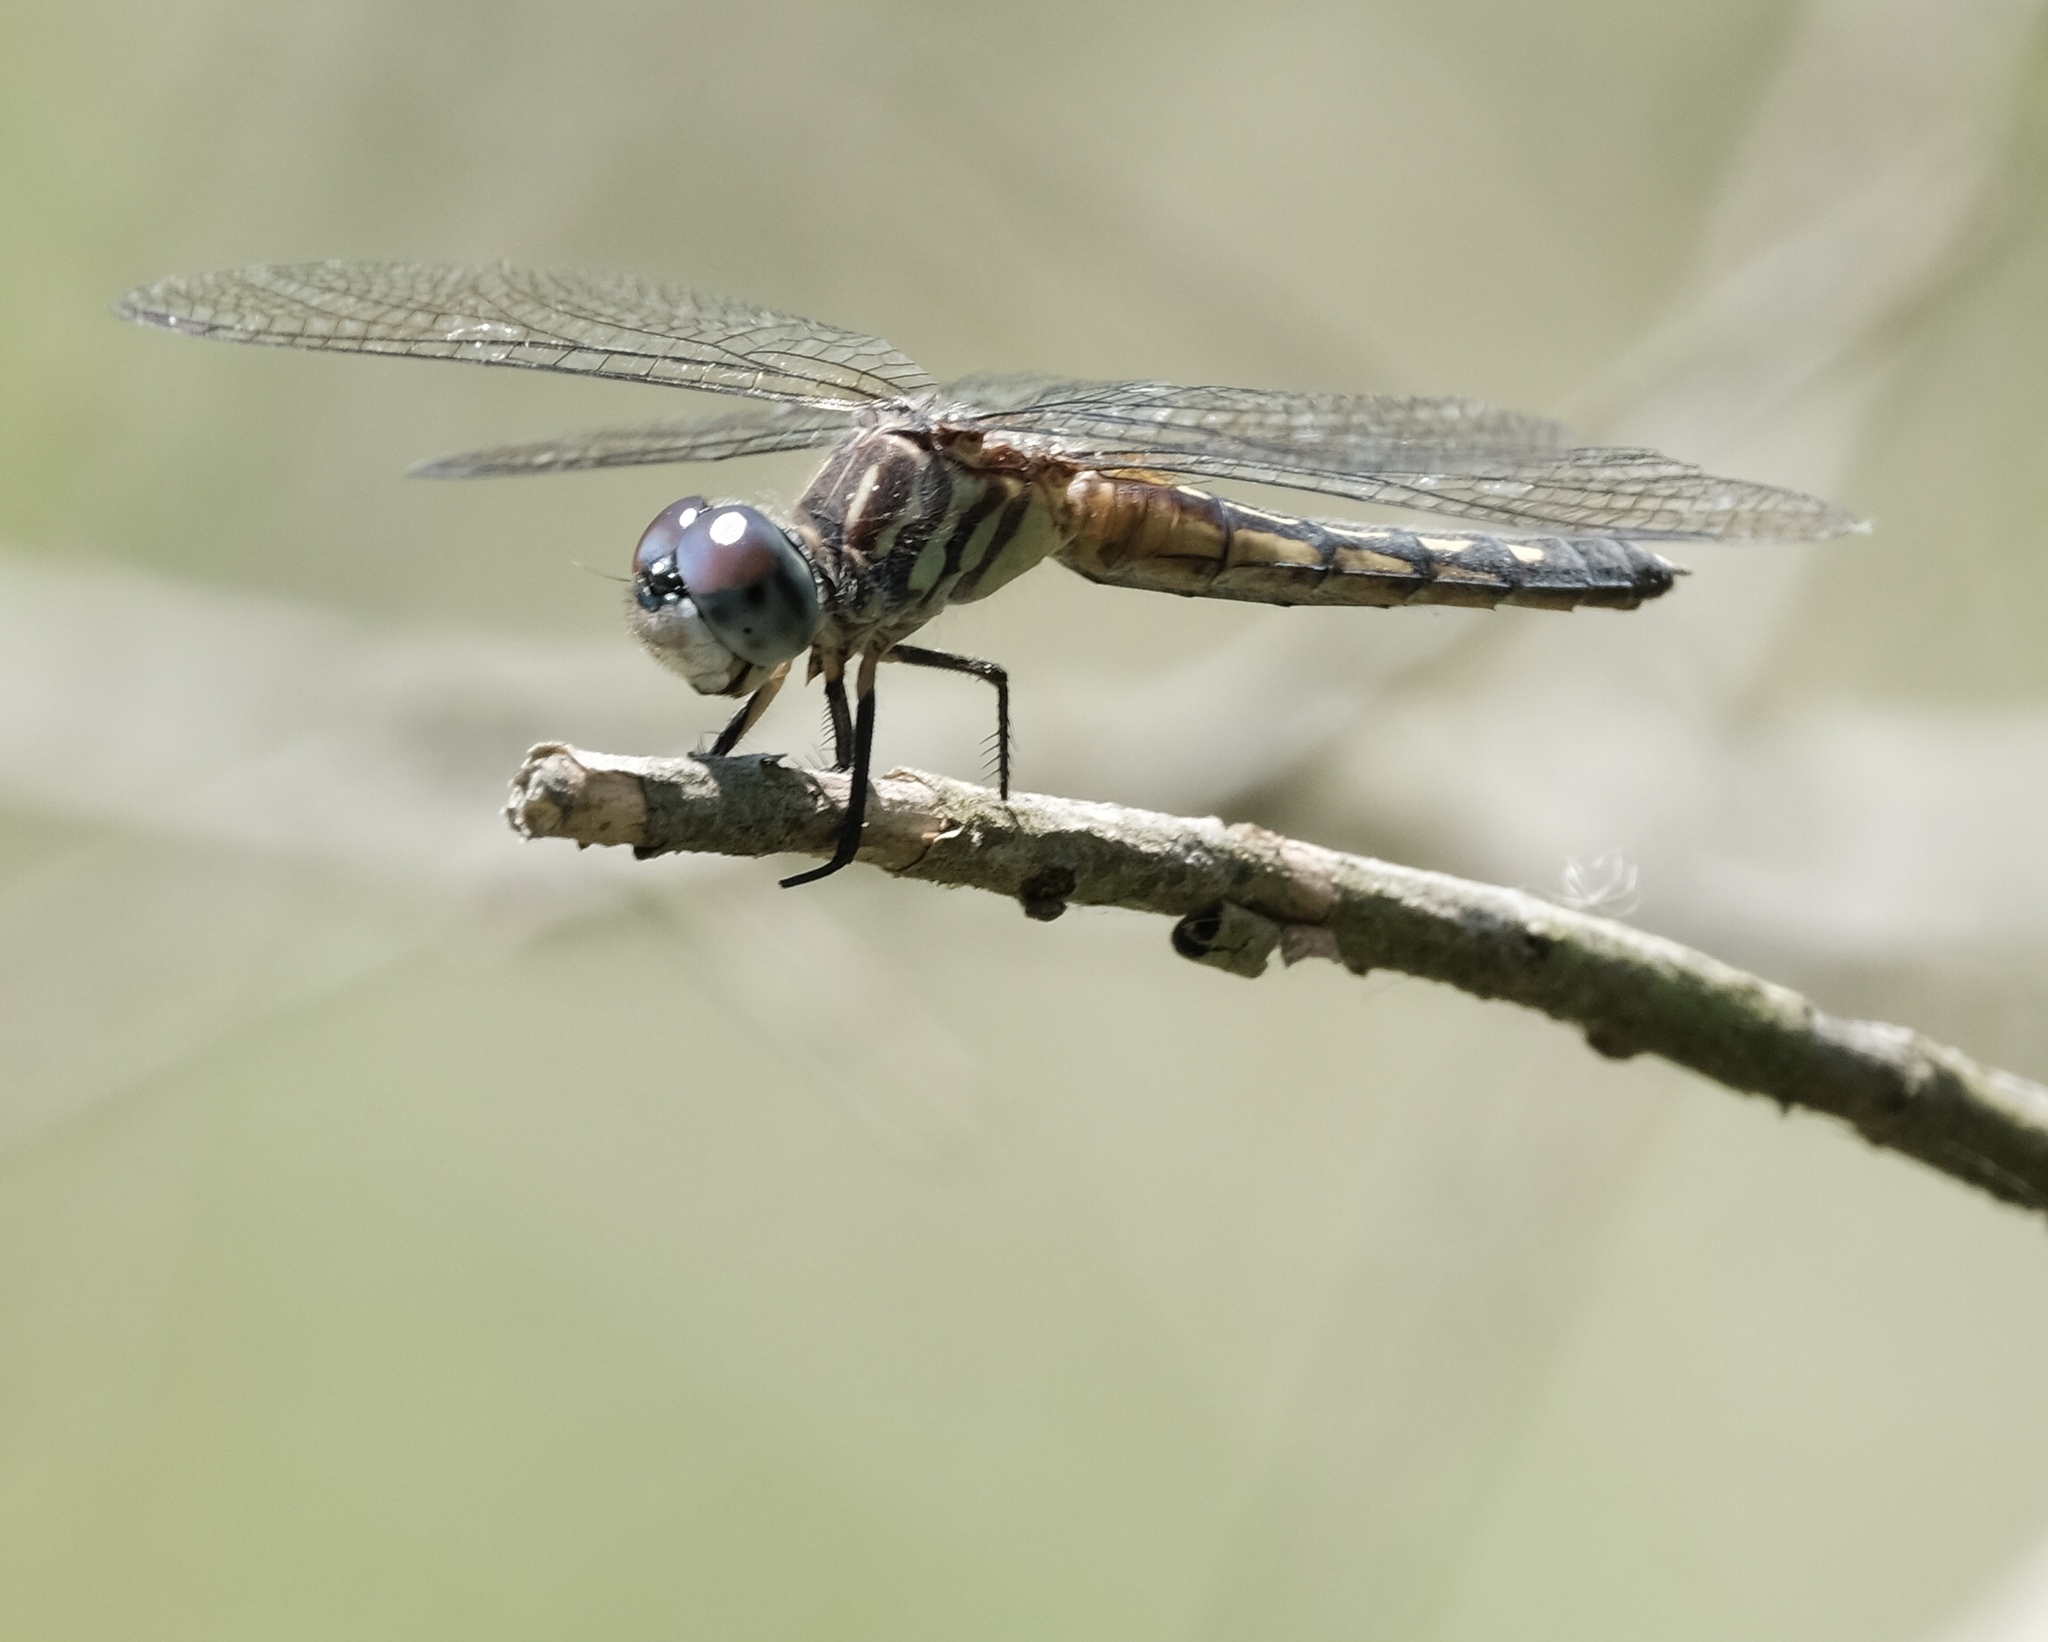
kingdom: Animalia
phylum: Arthropoda
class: Insecta
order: Odonata
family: Libellulidae
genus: Pachydiplax
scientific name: Pachydiplax longipennis
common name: Blue dasher
